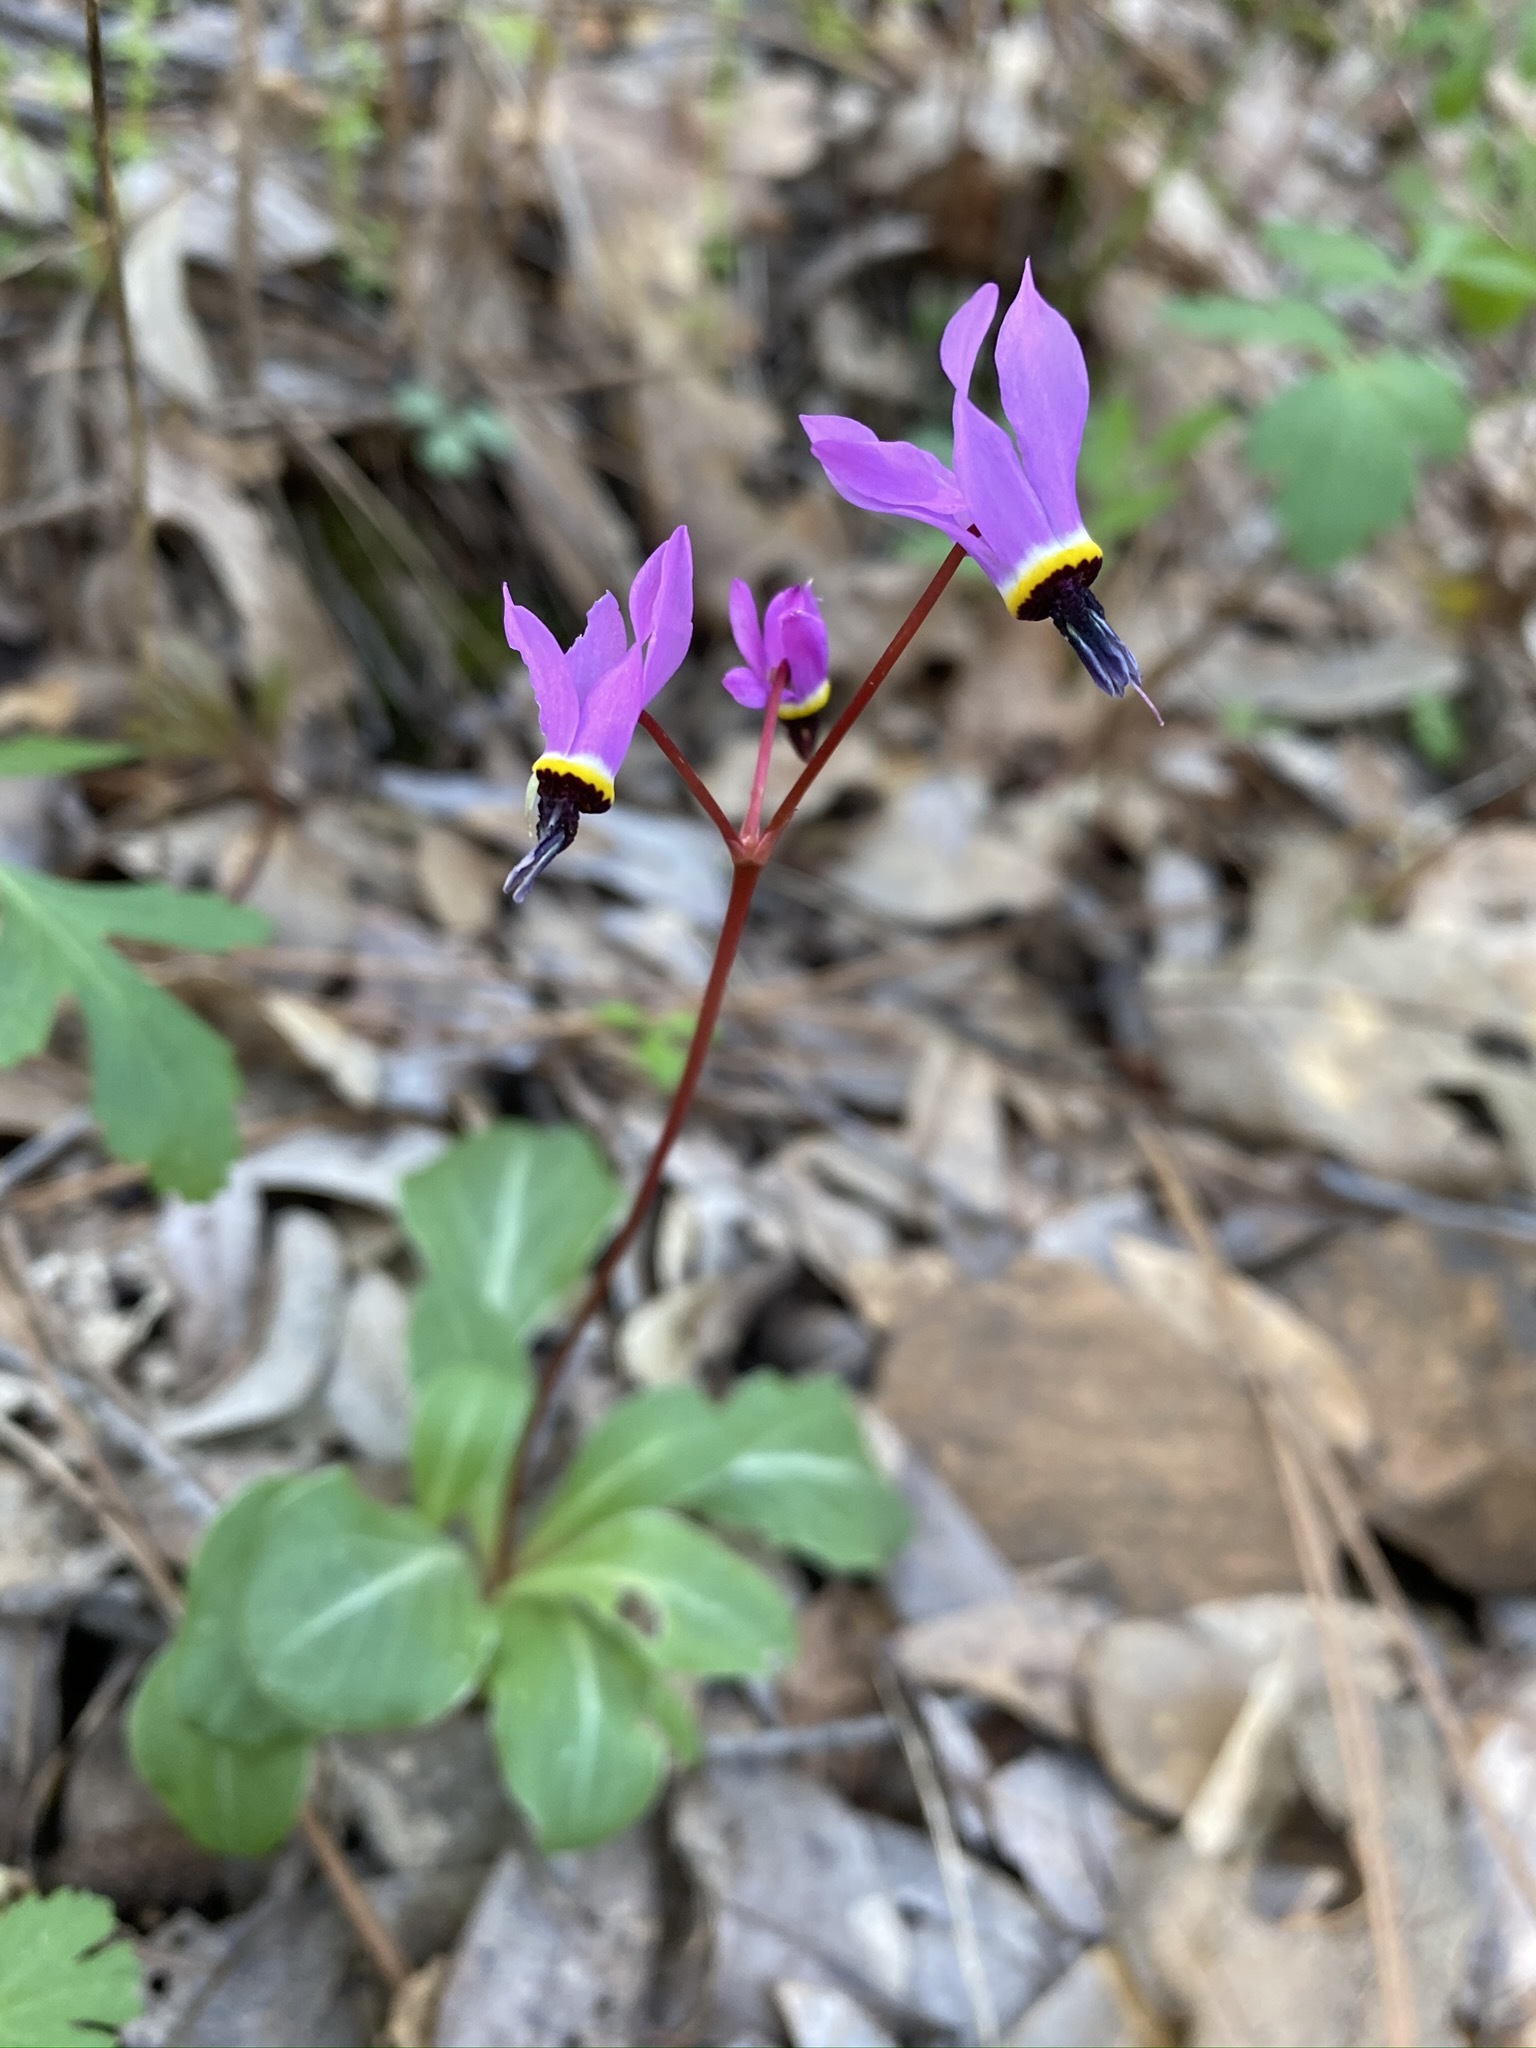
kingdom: Plantae
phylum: Tracheophyta
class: Magnoliopsida
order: Ericales
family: Primulaceae
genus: Dodecatheon
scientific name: Dodecatheon hendersonii
